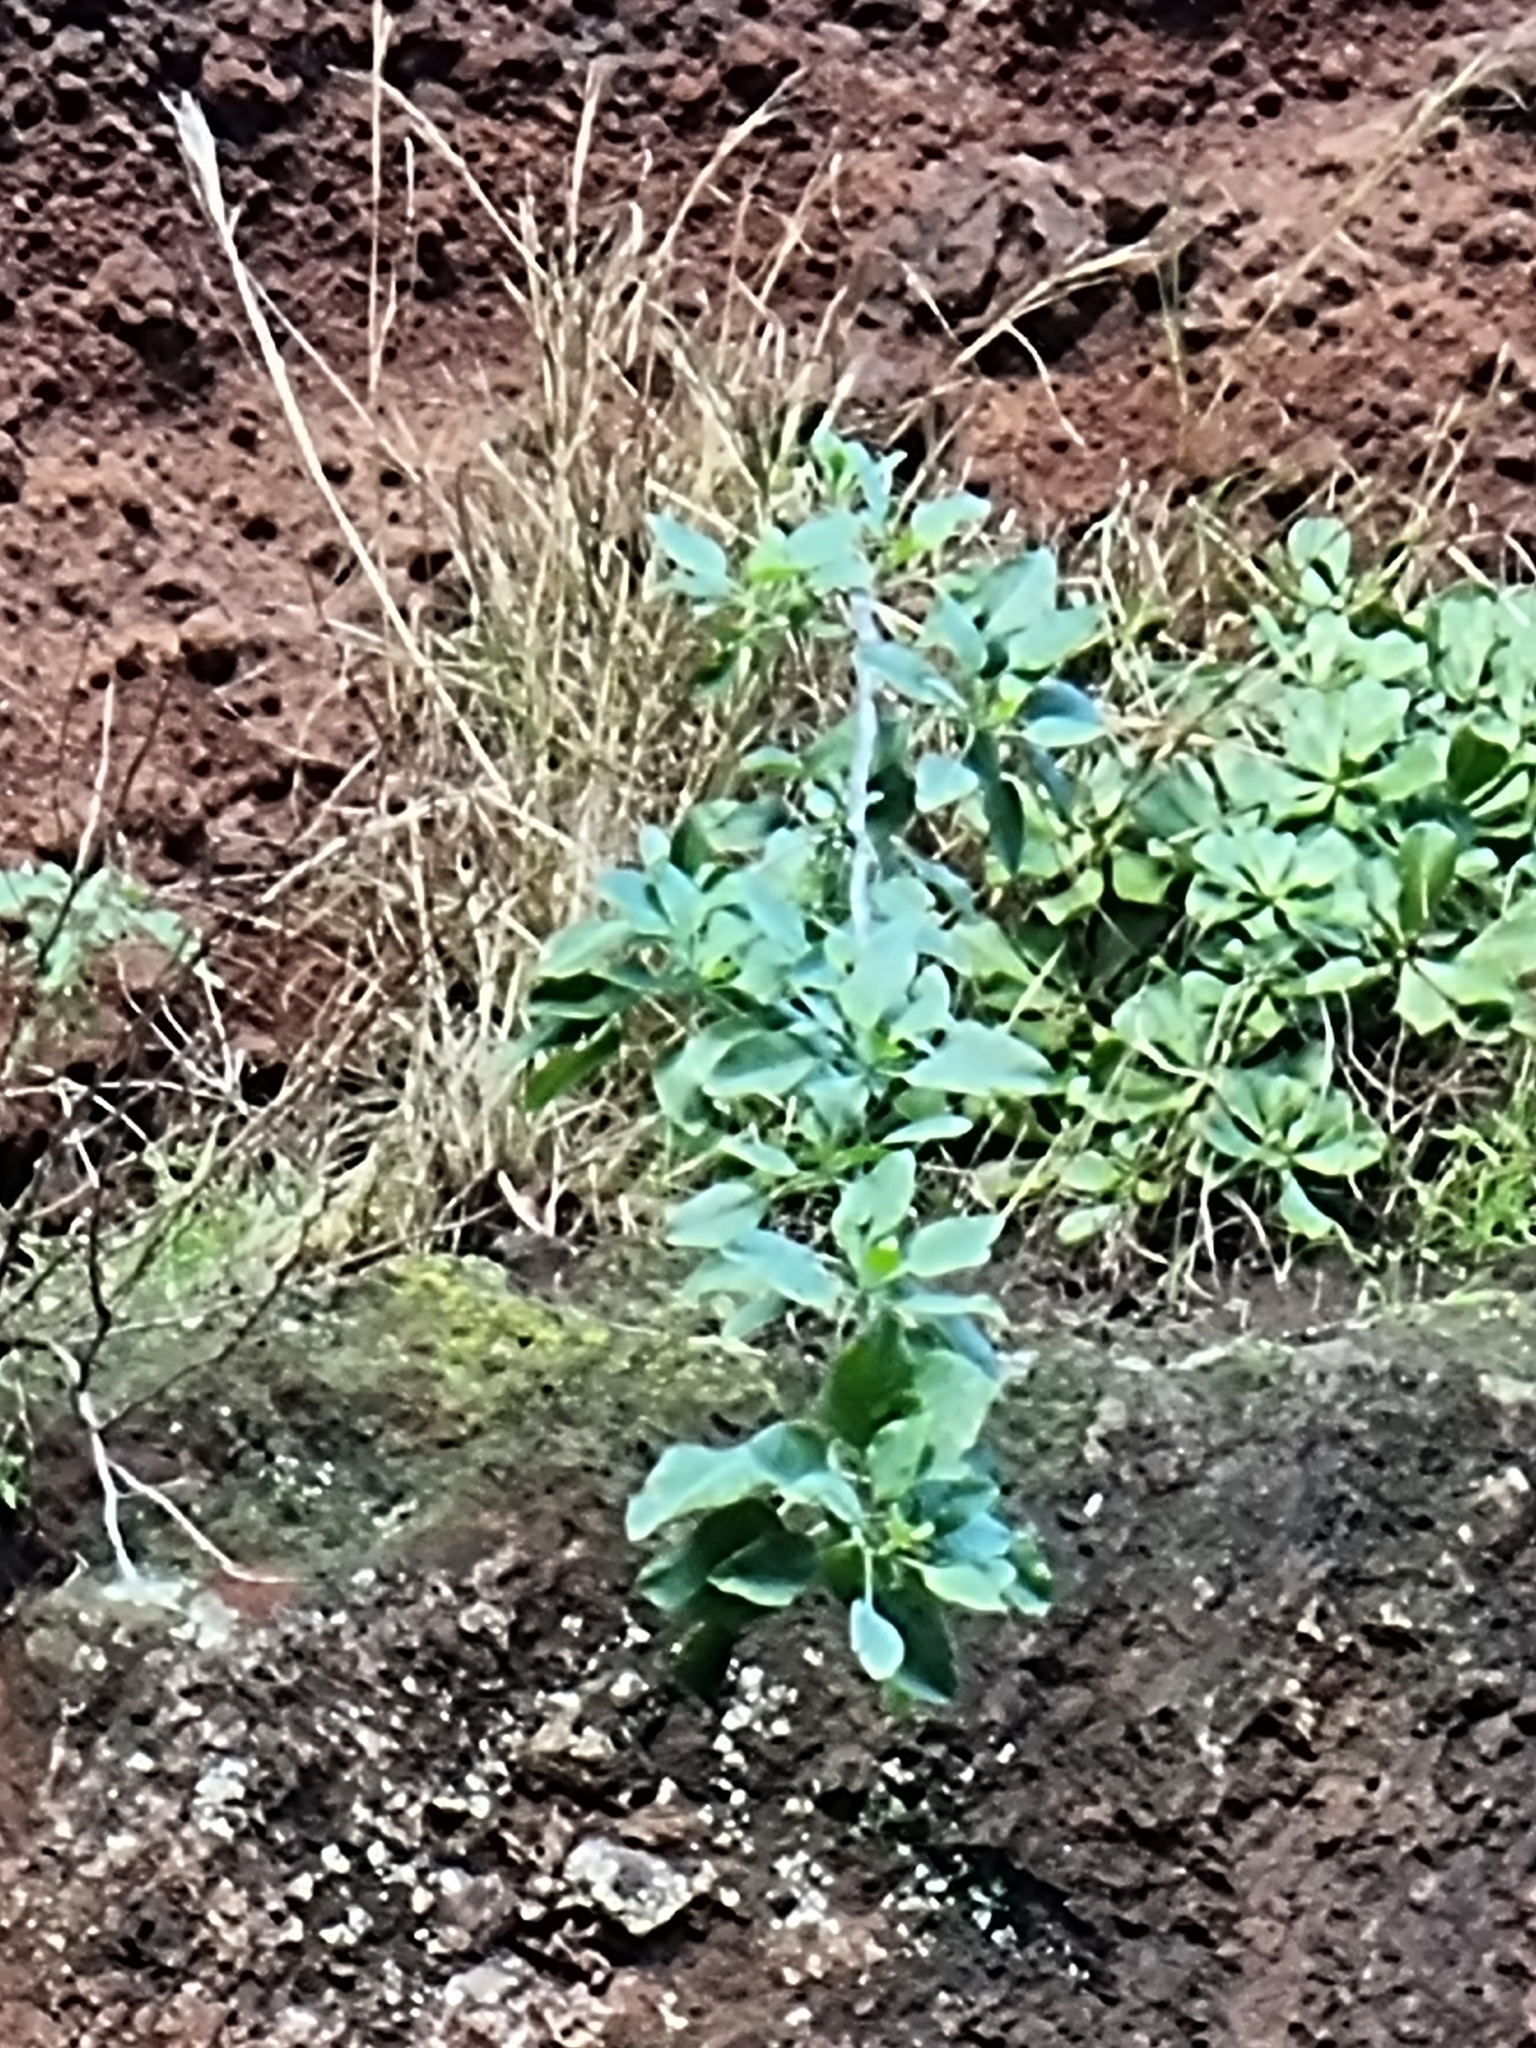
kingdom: Plantae
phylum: Tracheophyta
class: Magnoliopsida
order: Solanales
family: Solanaceae
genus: Nicotiana
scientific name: Nicotiana glauca
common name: Tree tobacco
